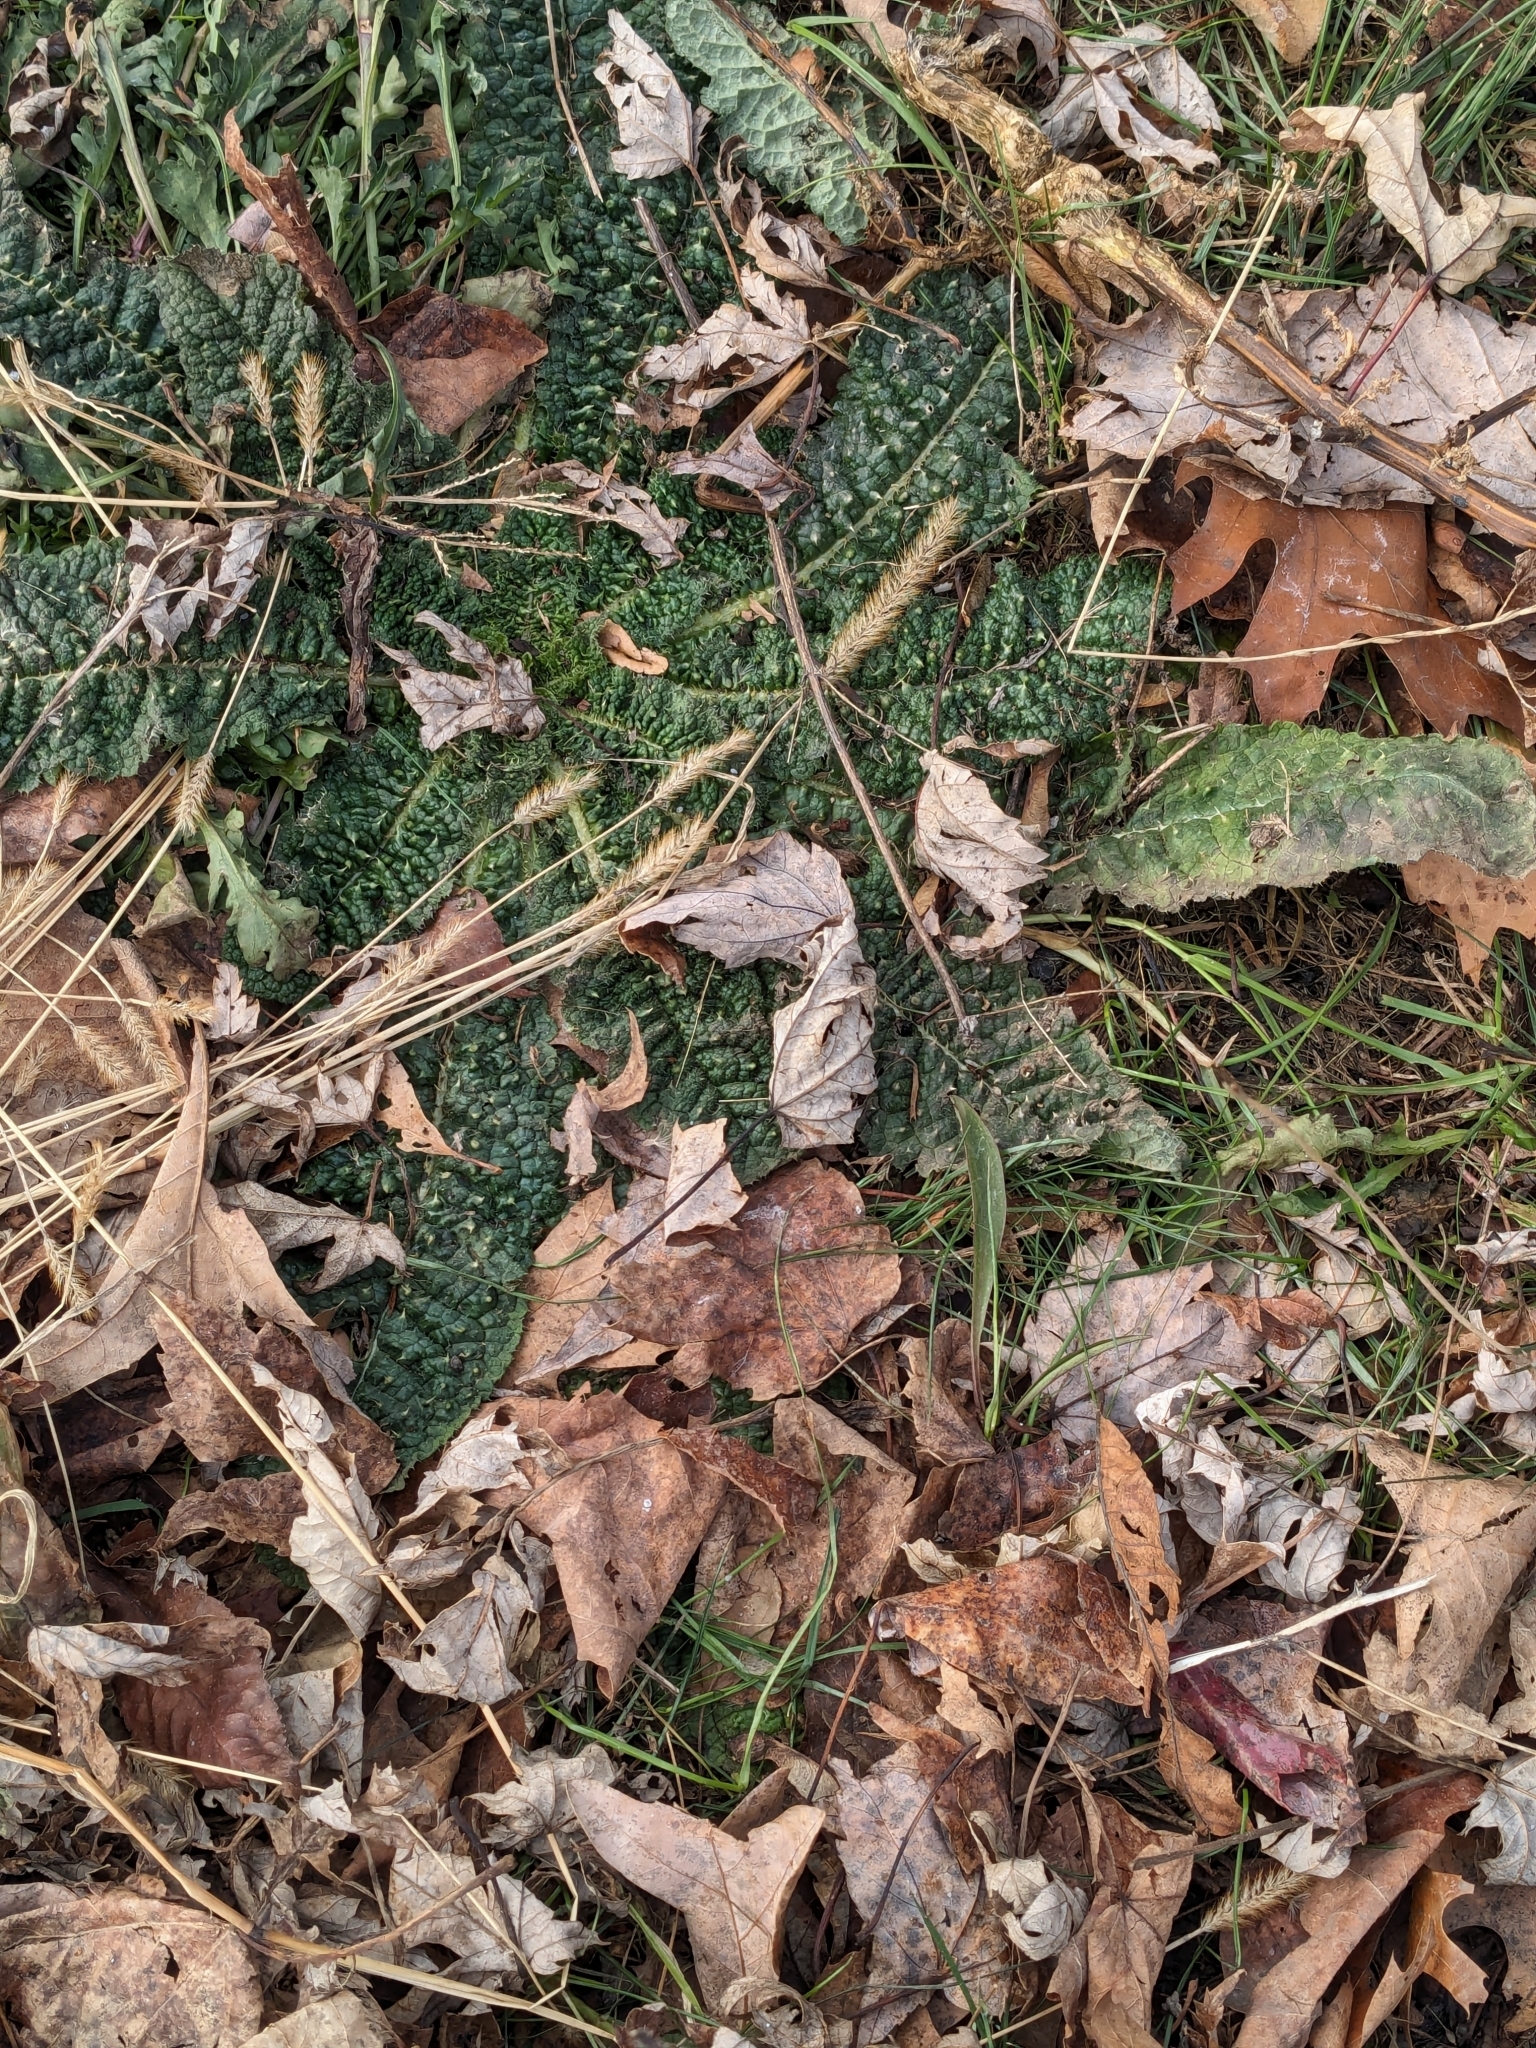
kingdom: Plantae
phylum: Tracheophyta
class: Magnoliopsida
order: Dipsacales
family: Caprifoliaceae
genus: Dipsacus
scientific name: Dipsacus fullonum
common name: Teasel
